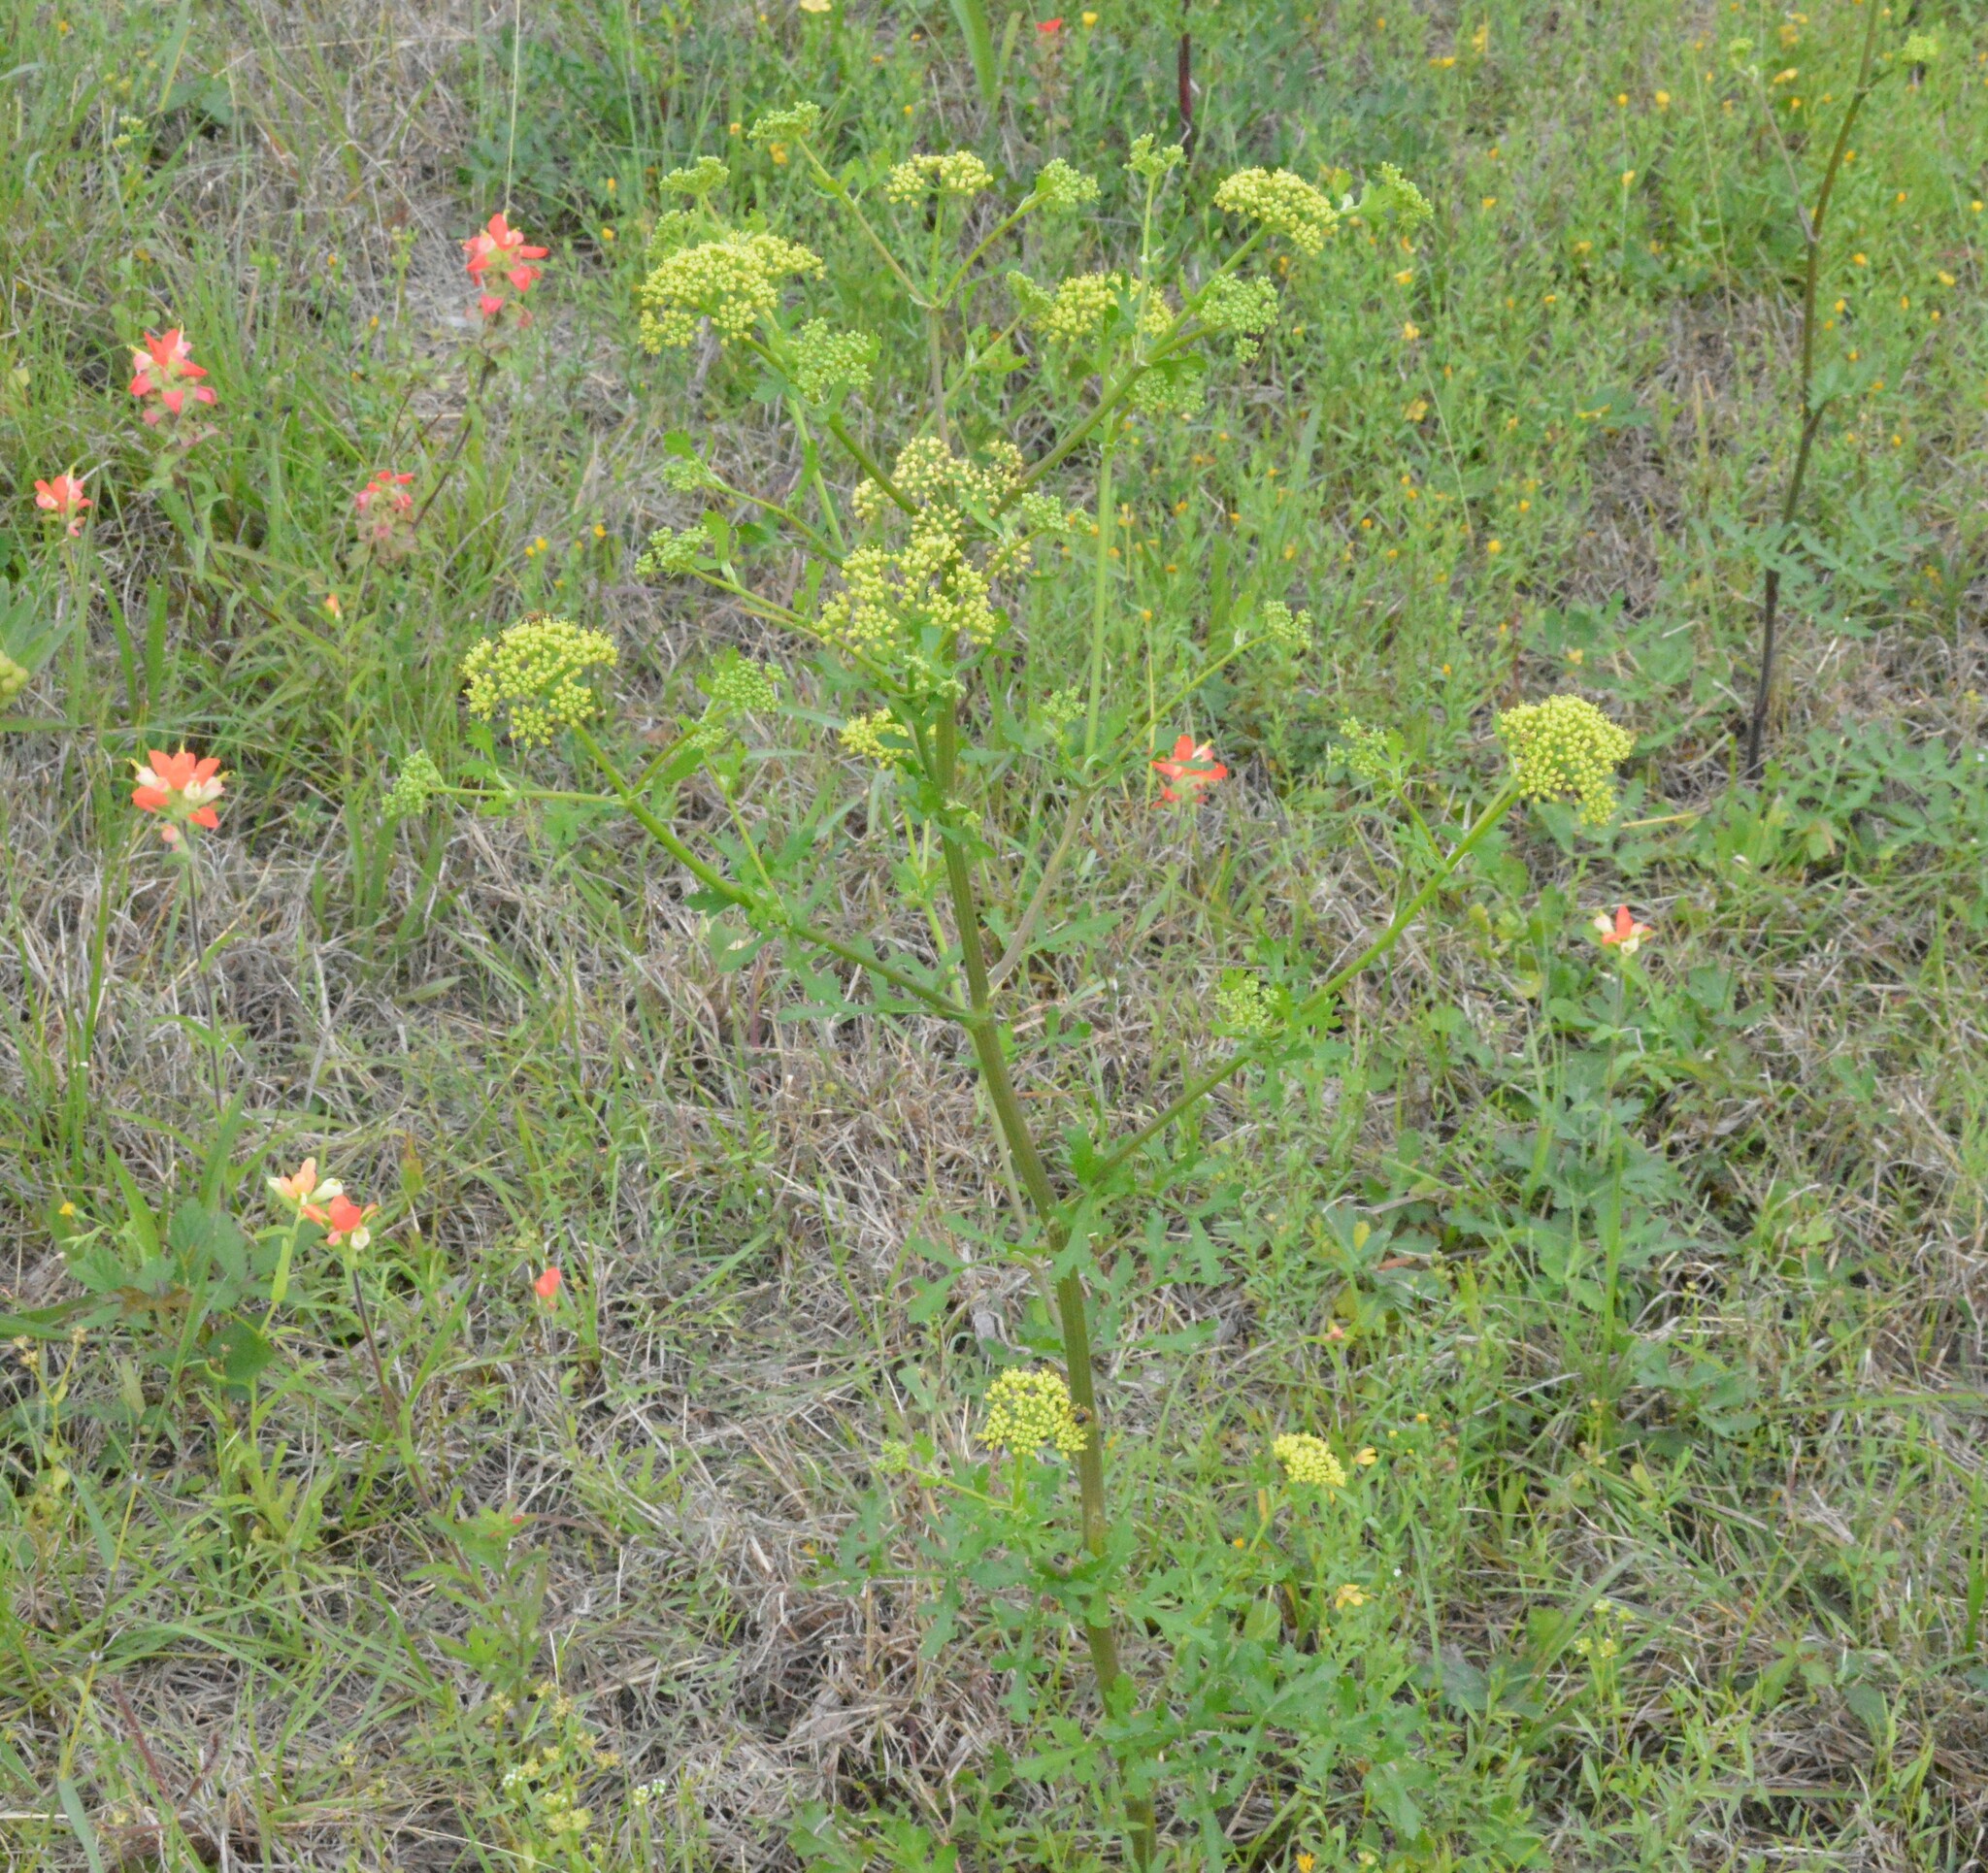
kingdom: Plantae
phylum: Tracheophyta
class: Magnoliopsida
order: Apiales
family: Apiaceae
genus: Polytaenia
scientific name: Polytaenia texana
